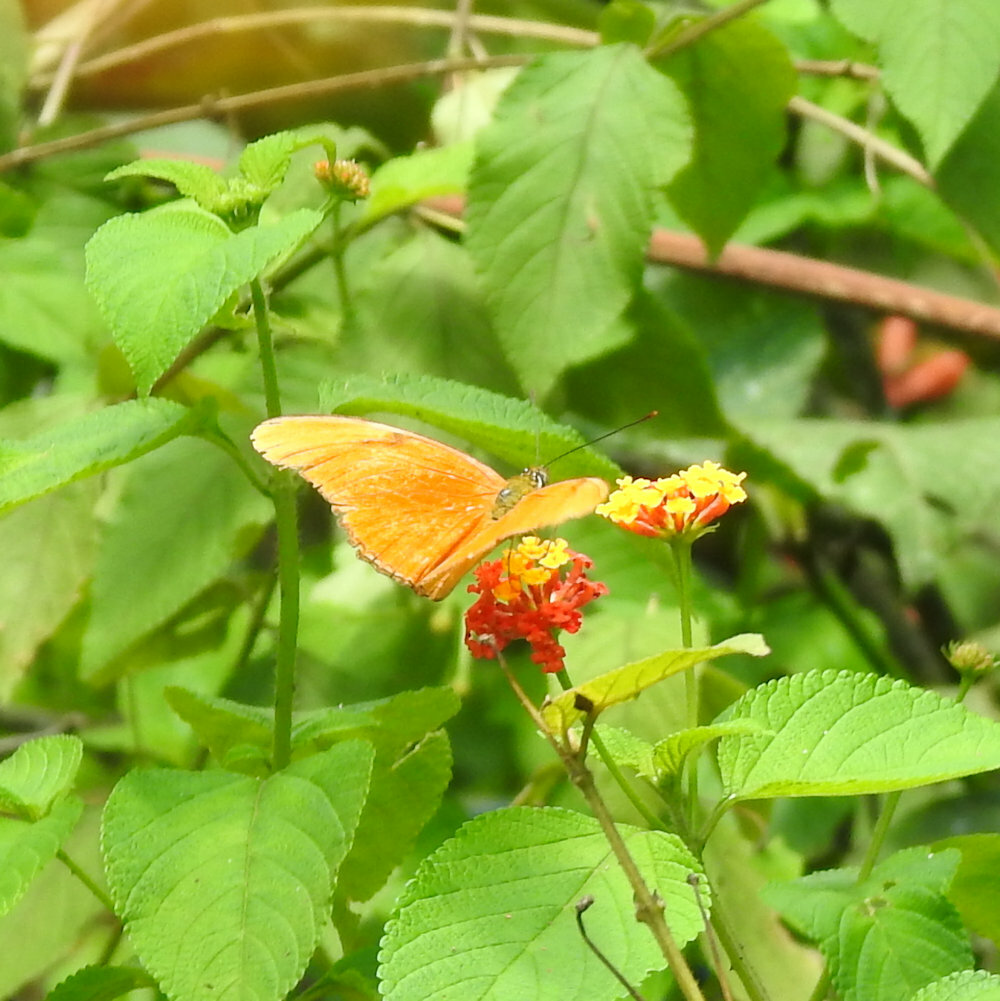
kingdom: Animalia
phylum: Arthropoda
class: Insecta
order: Lepidoptera
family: Nymphalidae
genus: Dryas
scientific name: Dryas iulia
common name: Flambeau
